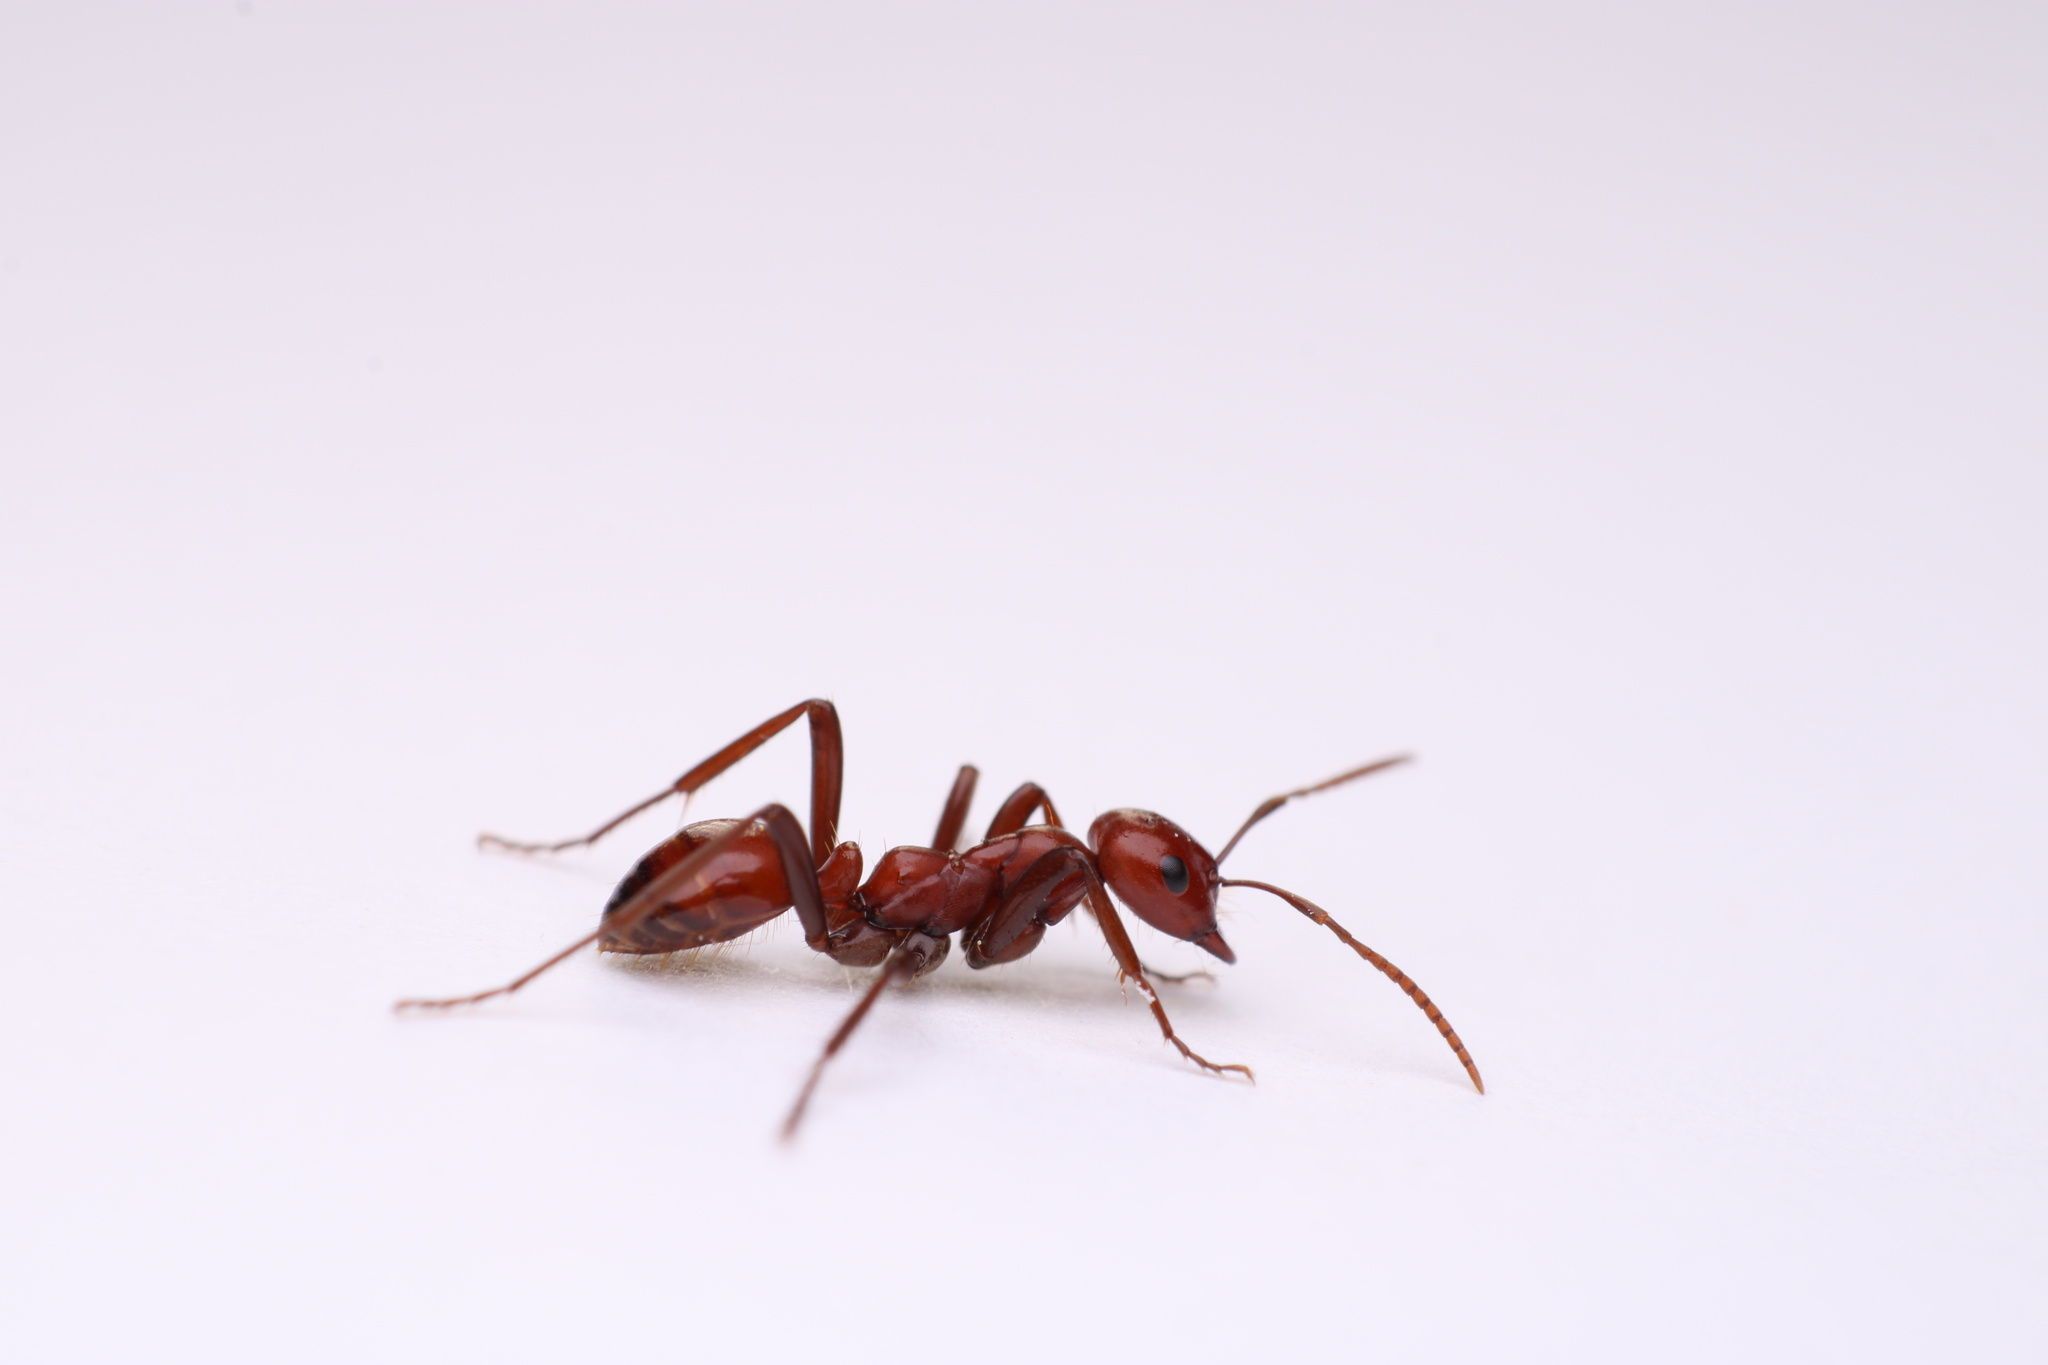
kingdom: Animalia
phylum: Arthropoda
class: Insecta
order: Hymenoptera
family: Formicidae
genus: Polyergus
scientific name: Polyergus lucidus
